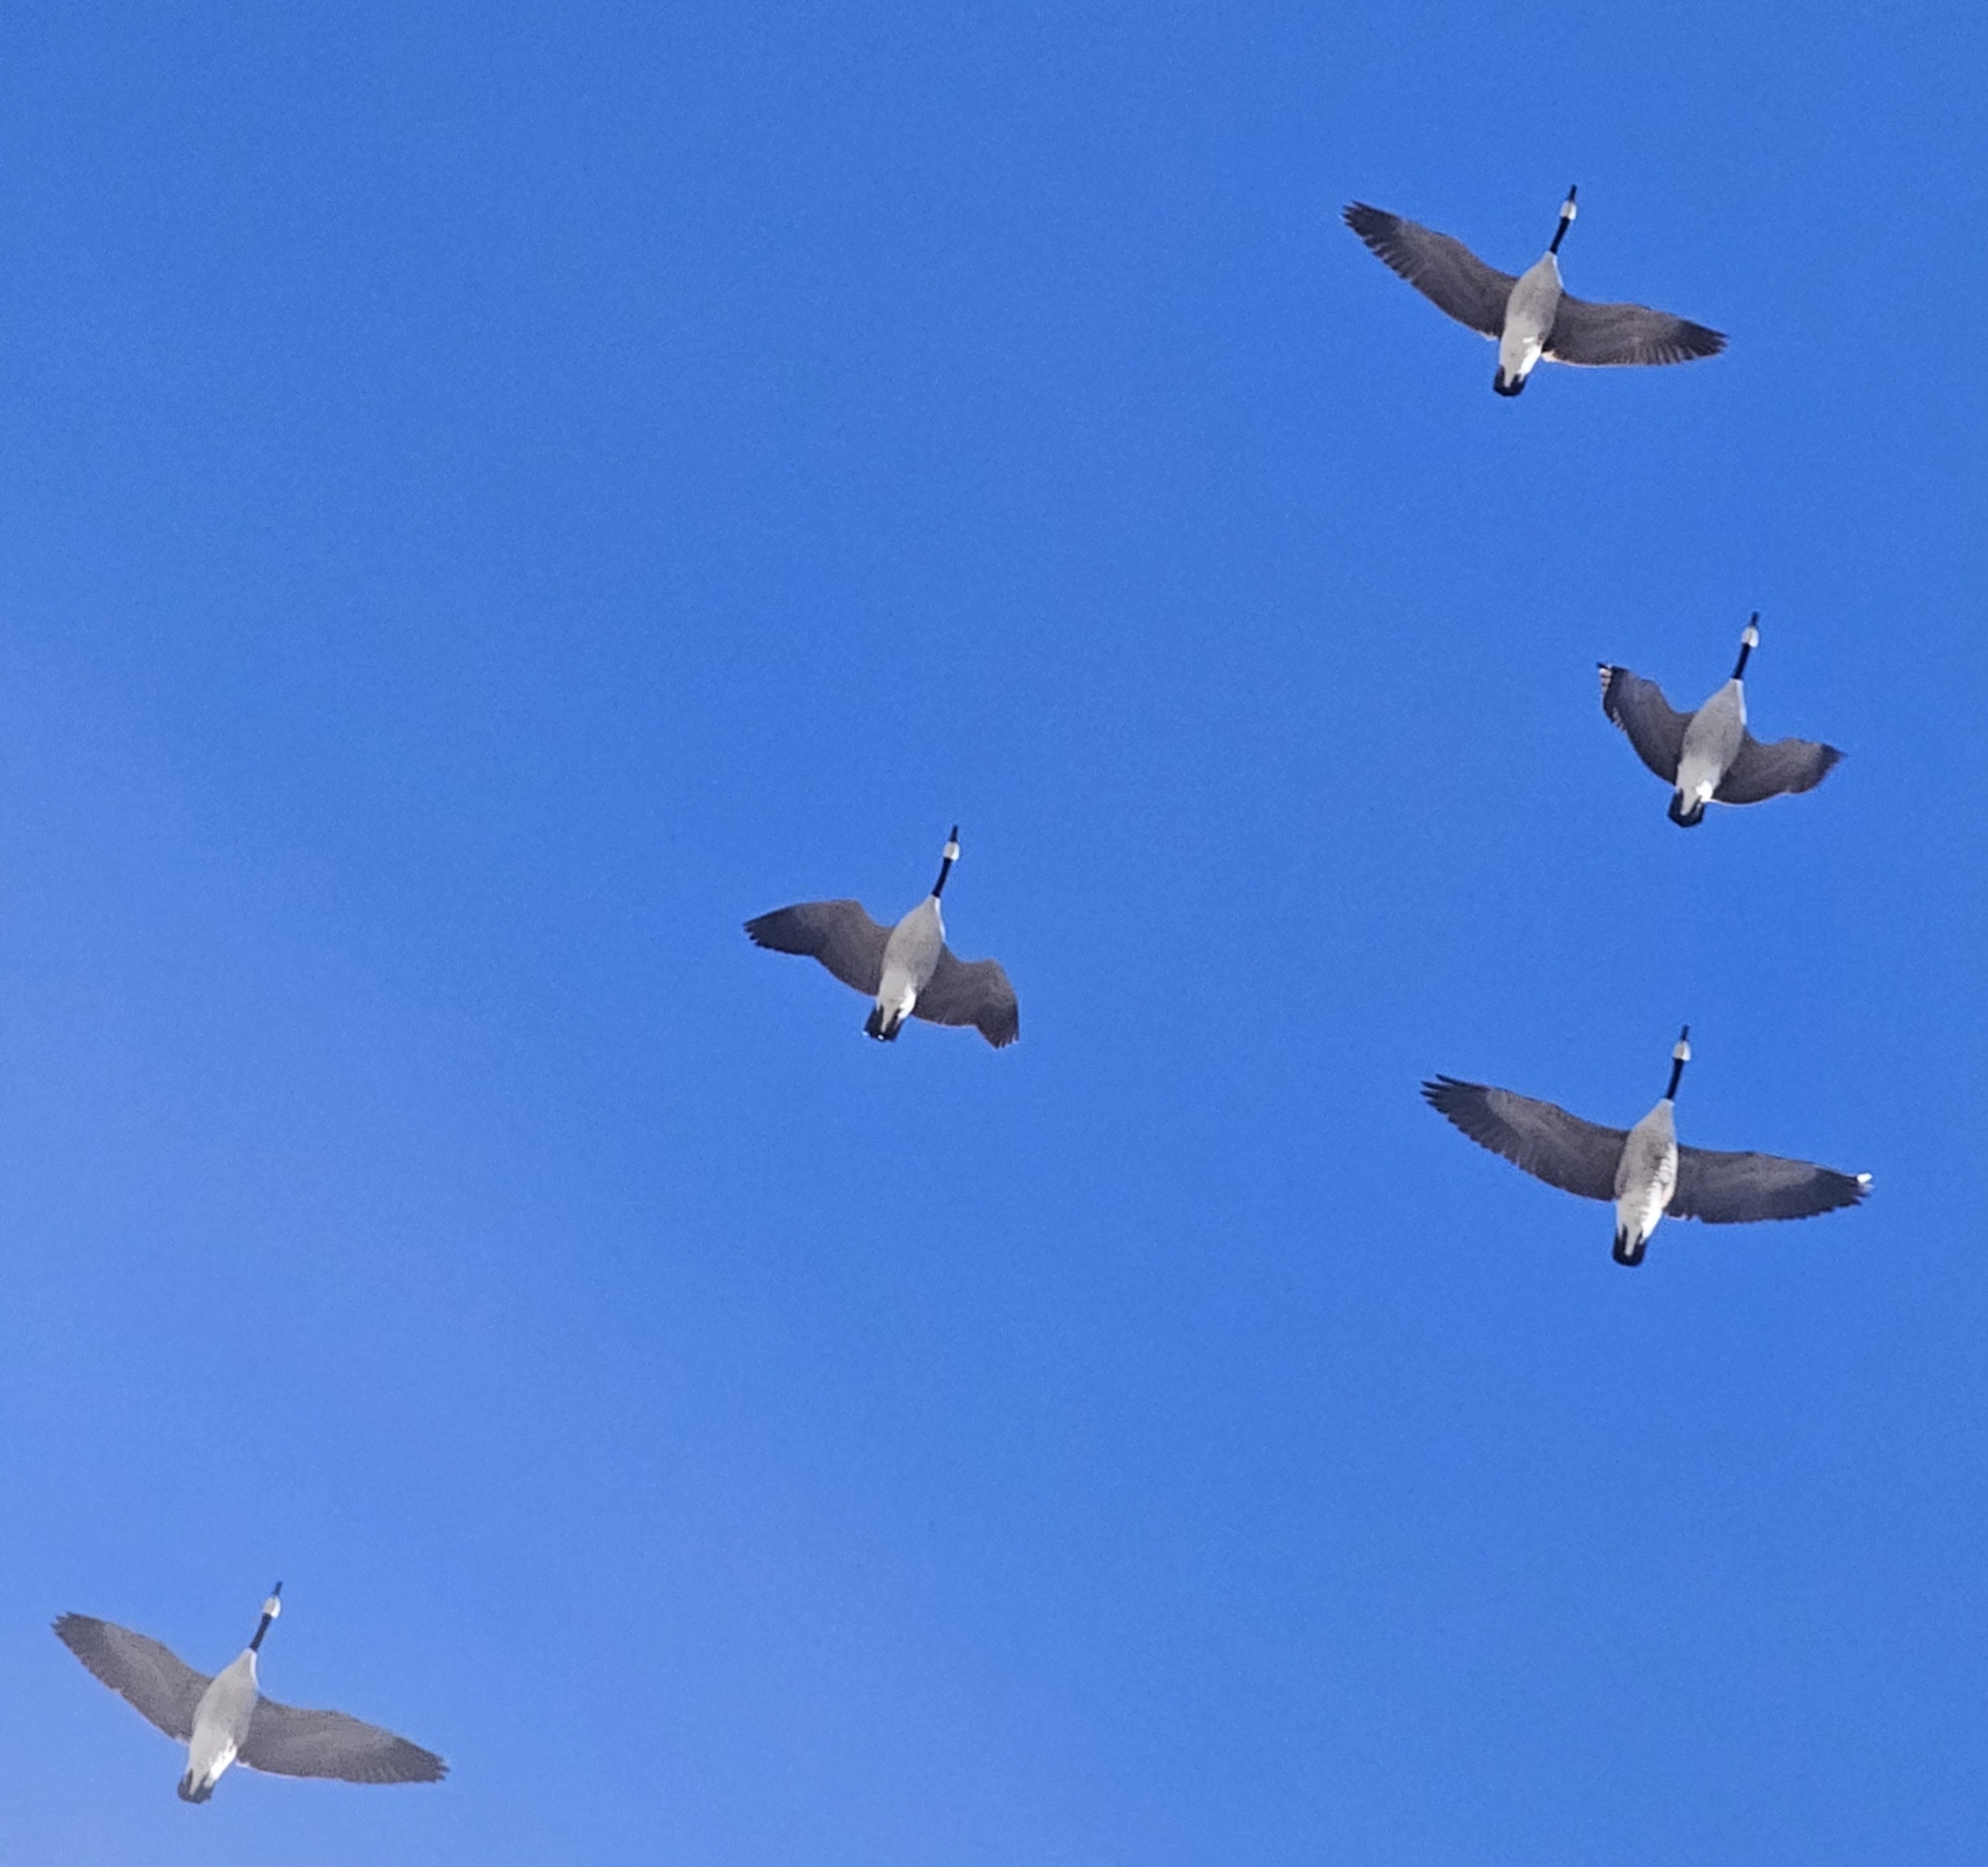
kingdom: Animalia
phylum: Chordata
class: Aves
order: Anseriformes
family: Anatidae
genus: Branta
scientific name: Branta canadensis
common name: Canada goose
